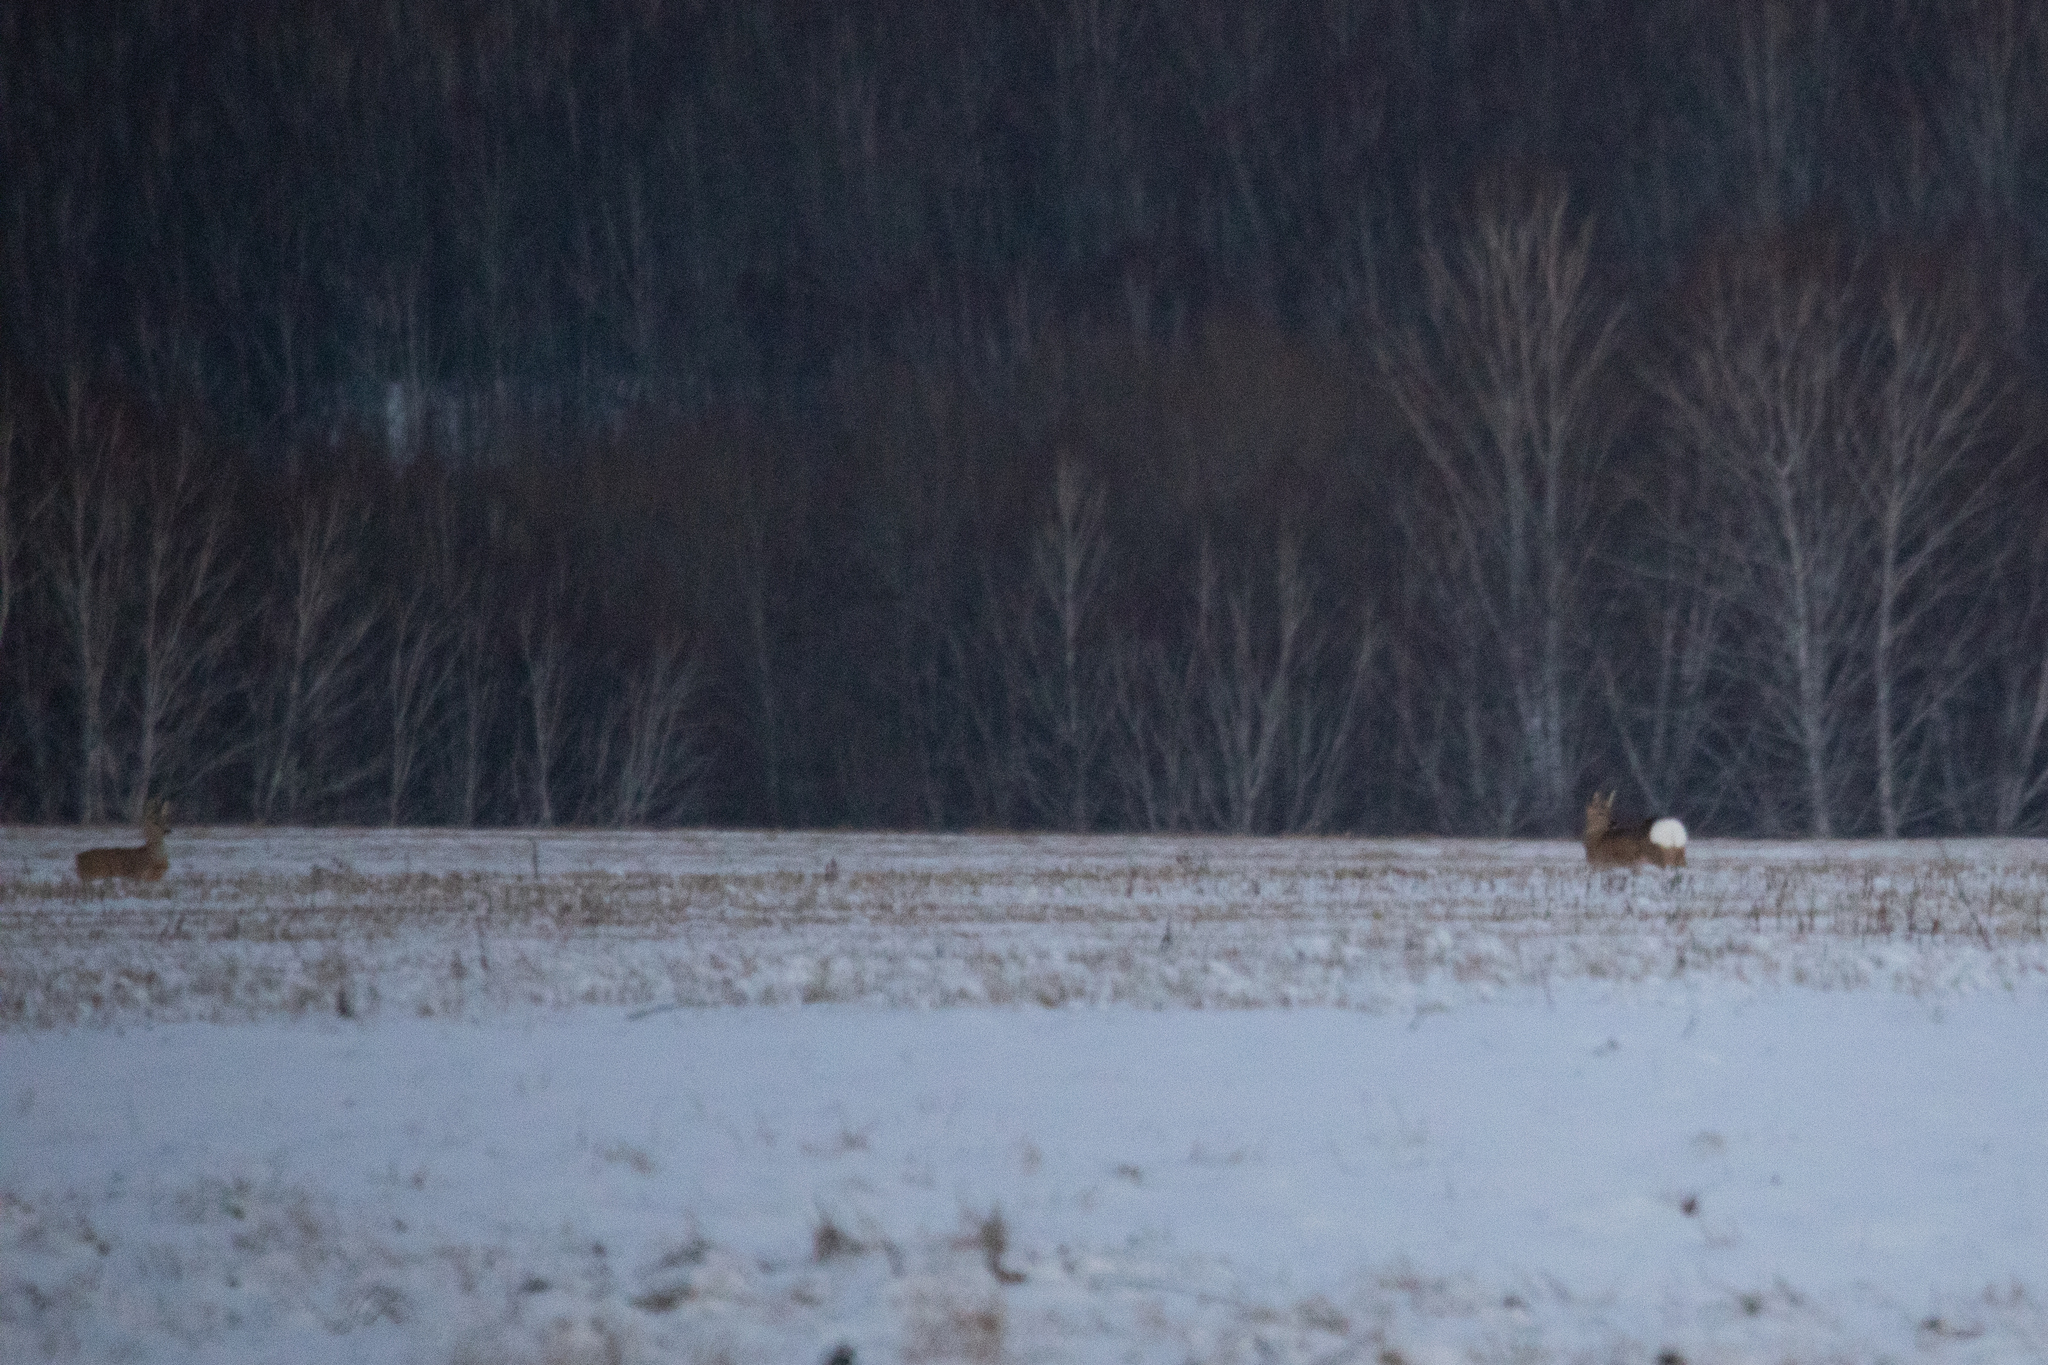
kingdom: Animalia
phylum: Chordata
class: Mammalia
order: Artiodactyla
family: Cervidae
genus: Capreolus
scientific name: Capreolus pygargus
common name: Siberian roe
